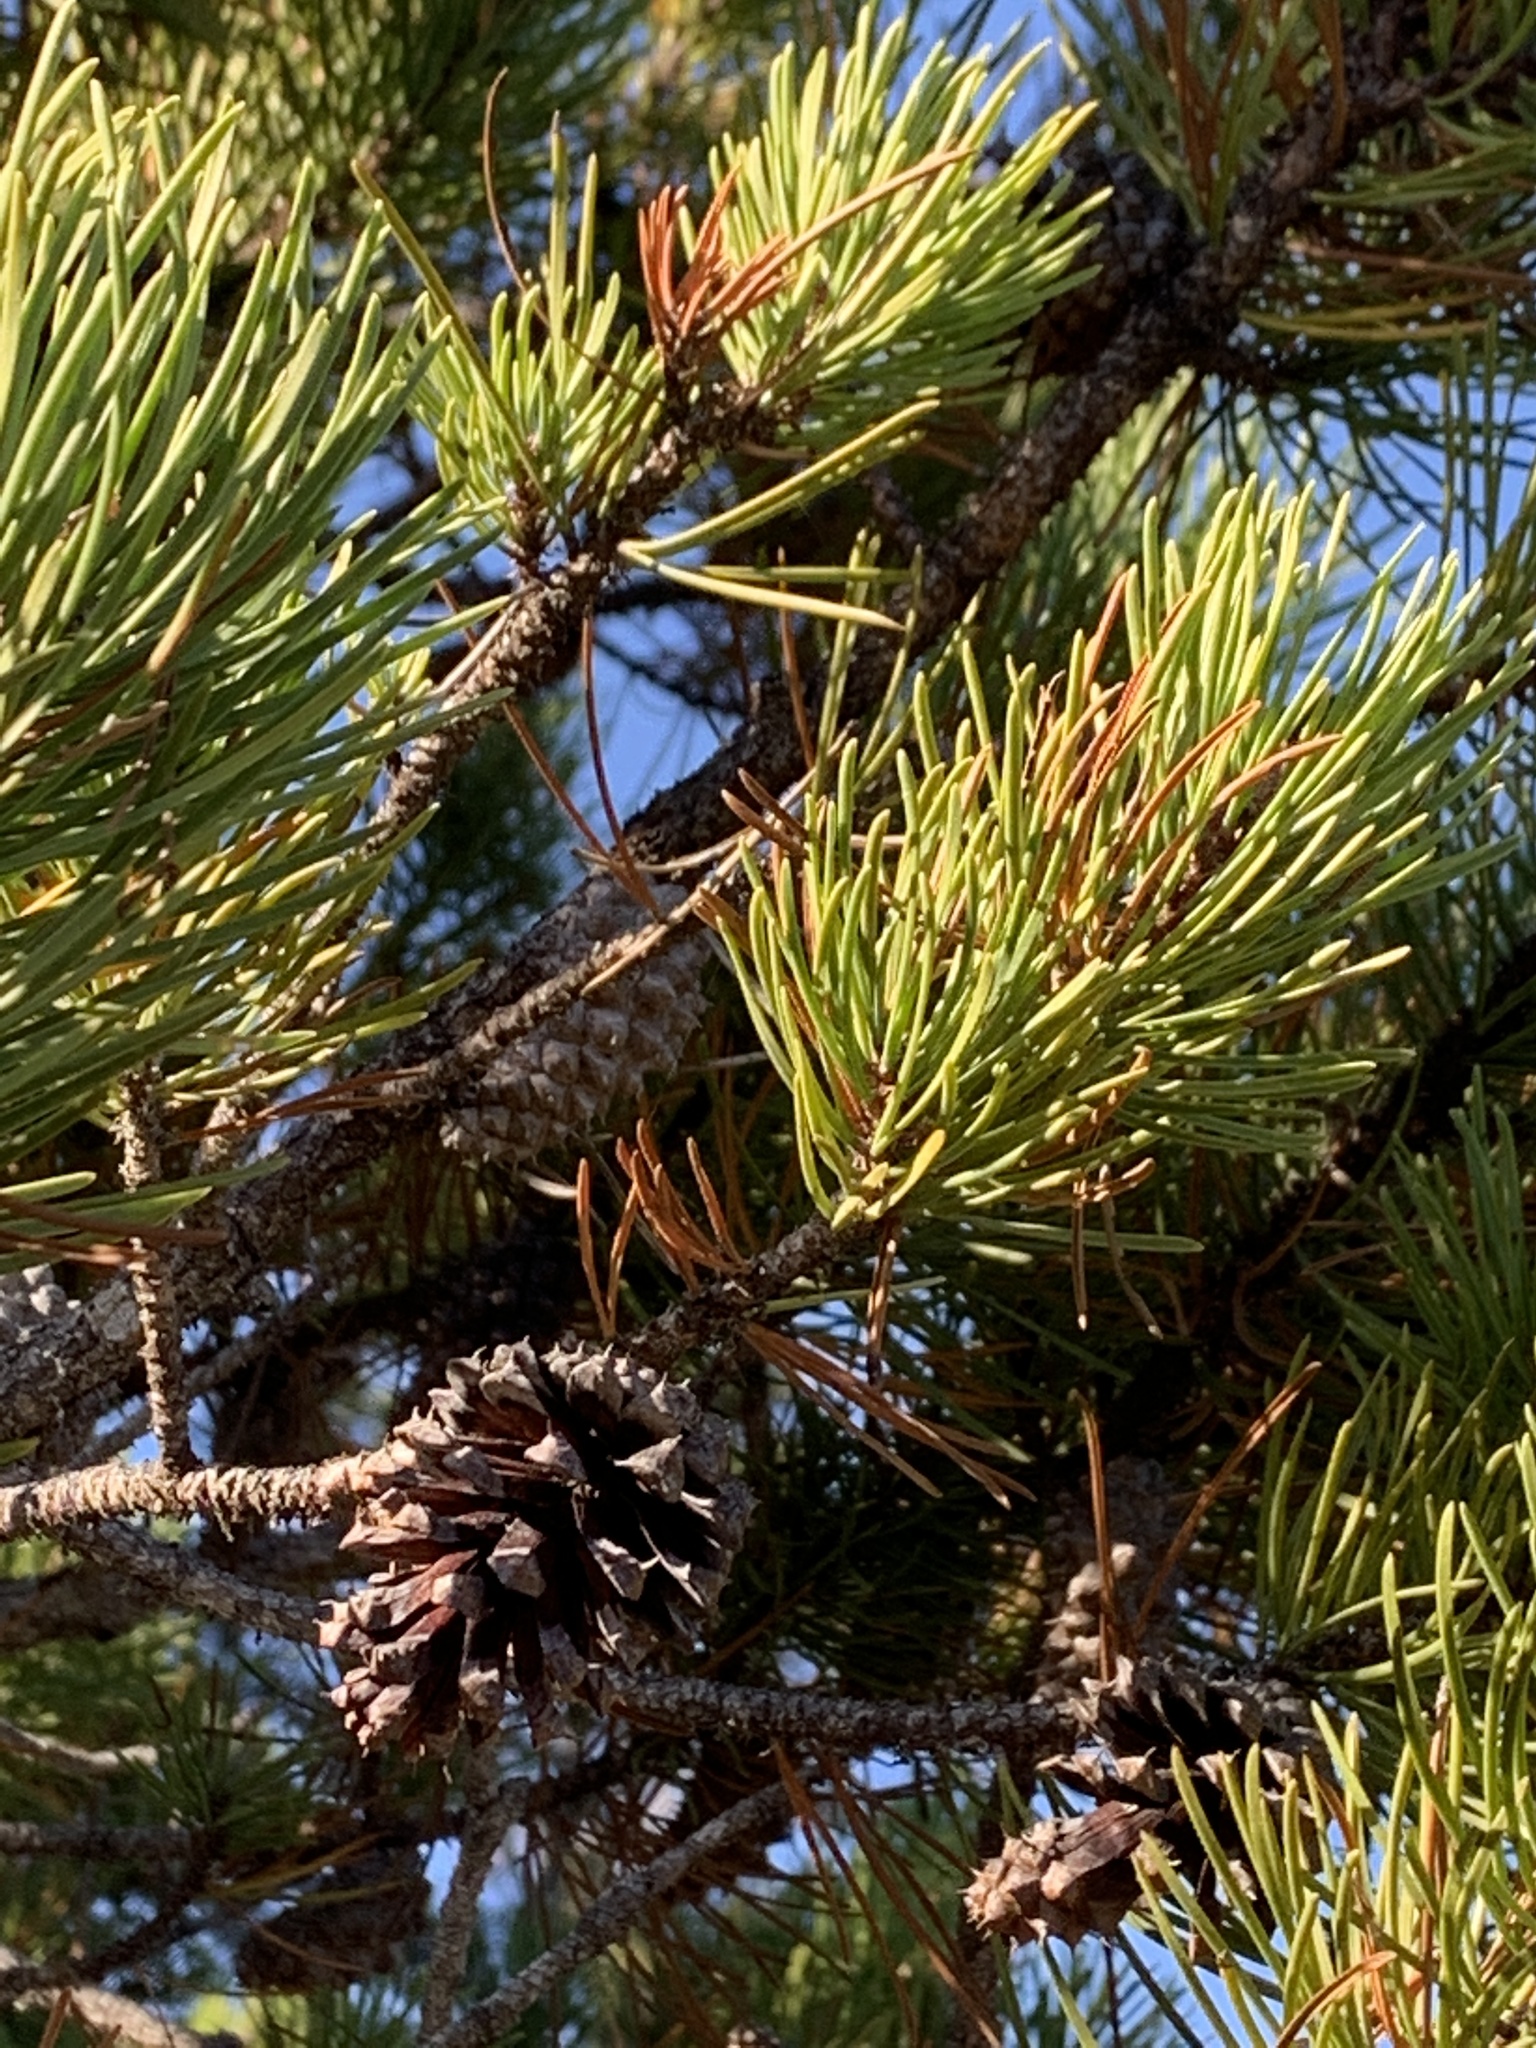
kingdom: Plantae
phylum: Tracheophyta
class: Pinopsida
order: Pinales
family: Pinaceae
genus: Pinus
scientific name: Pinus contorta
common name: Lodgepole pine
